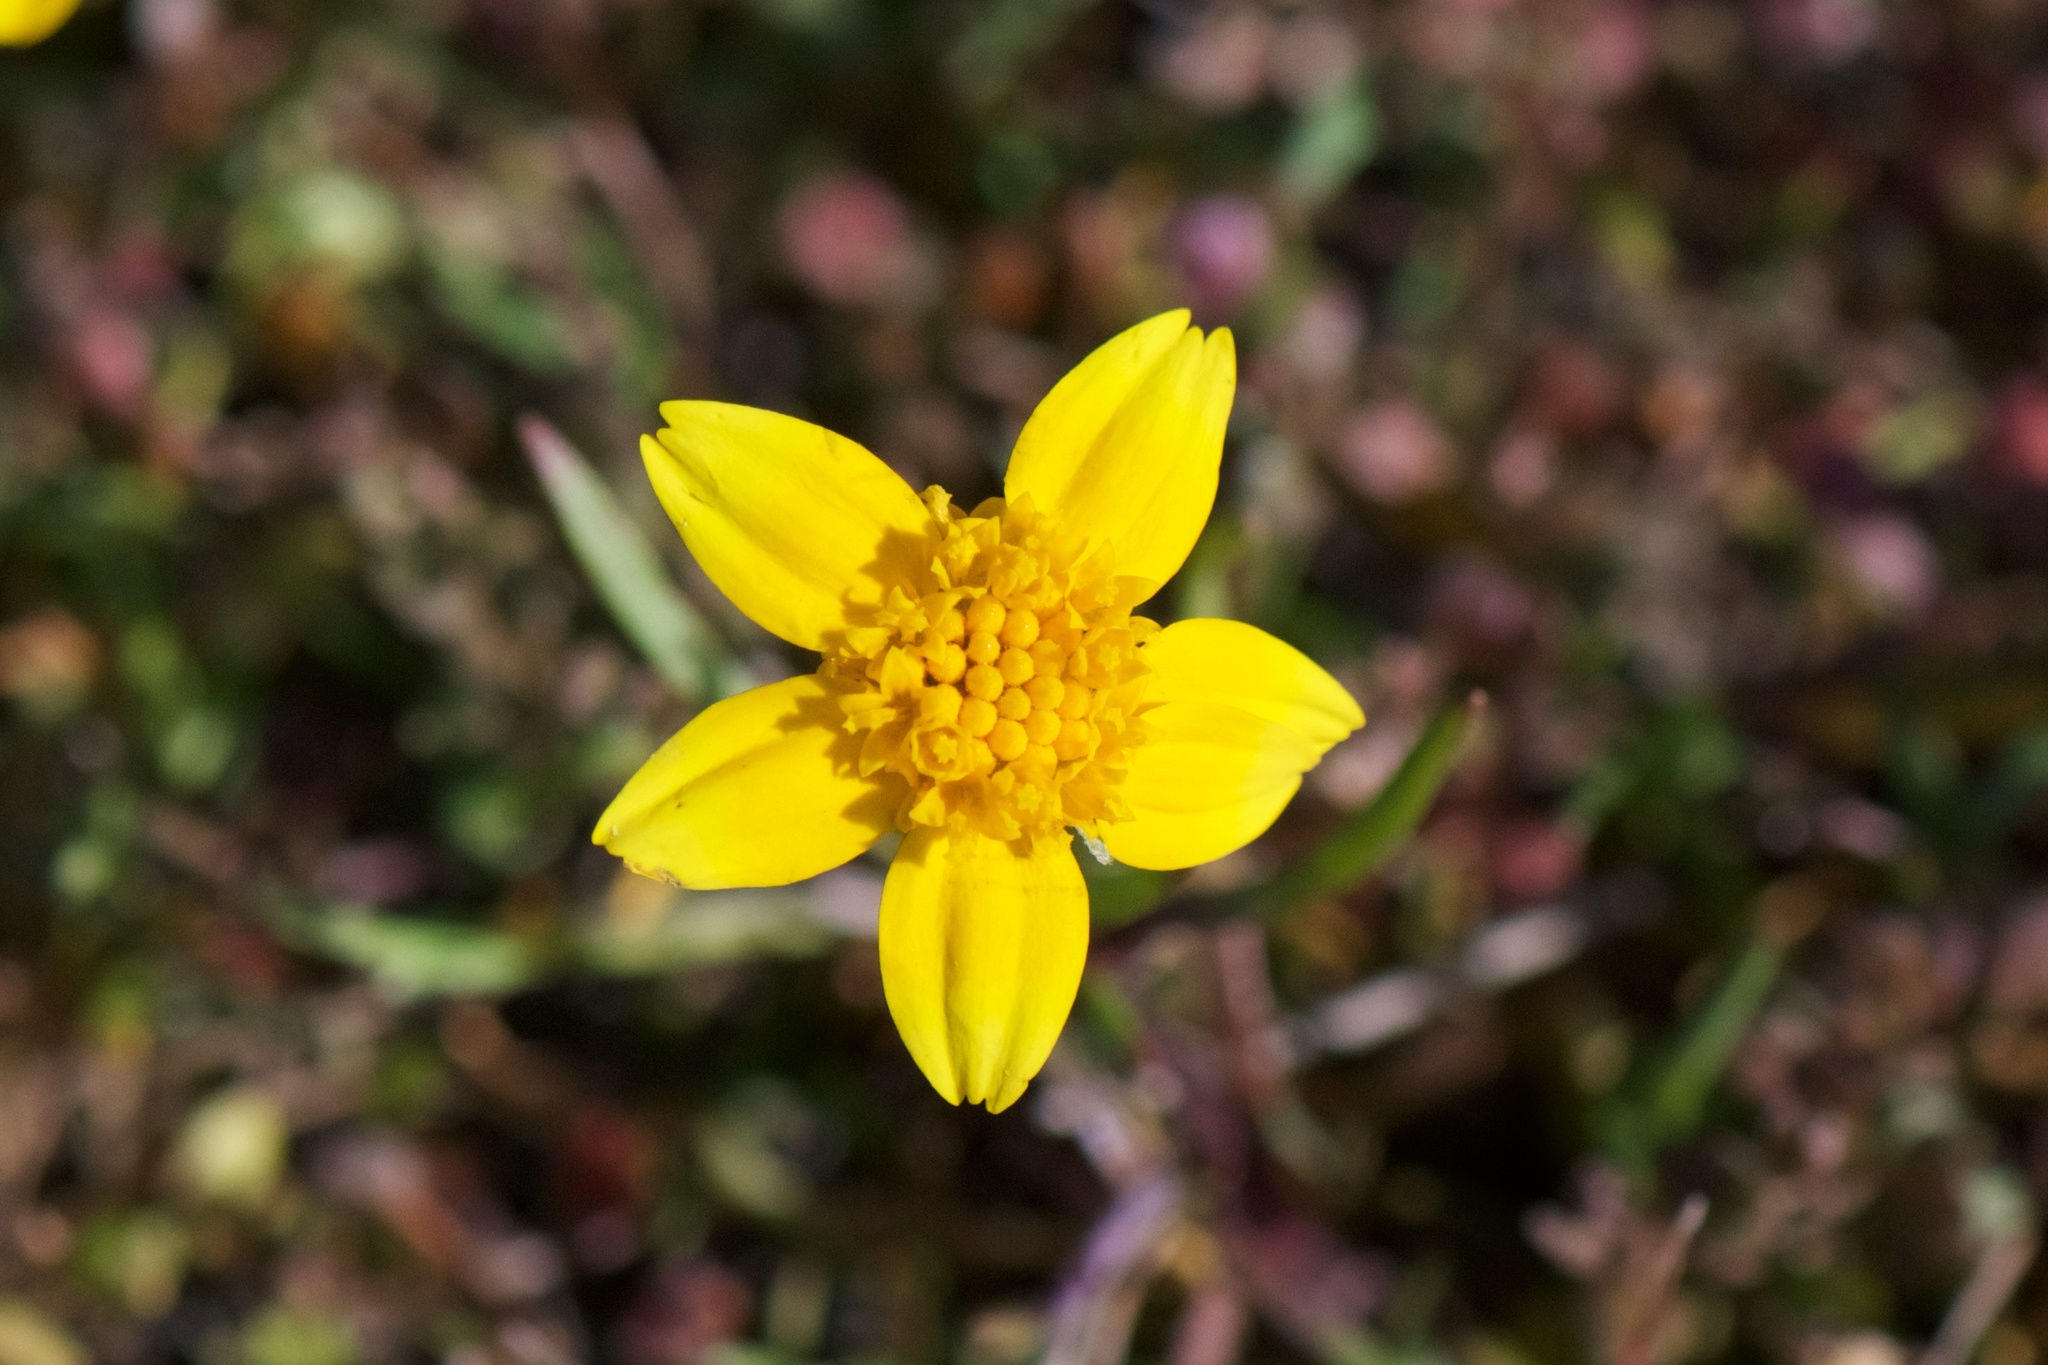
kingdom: Plantae
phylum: Tracheophyta
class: Magnoliopsida
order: Asterales
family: Asteraceae
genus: Lasthenia
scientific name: Lasthenia fremontii
